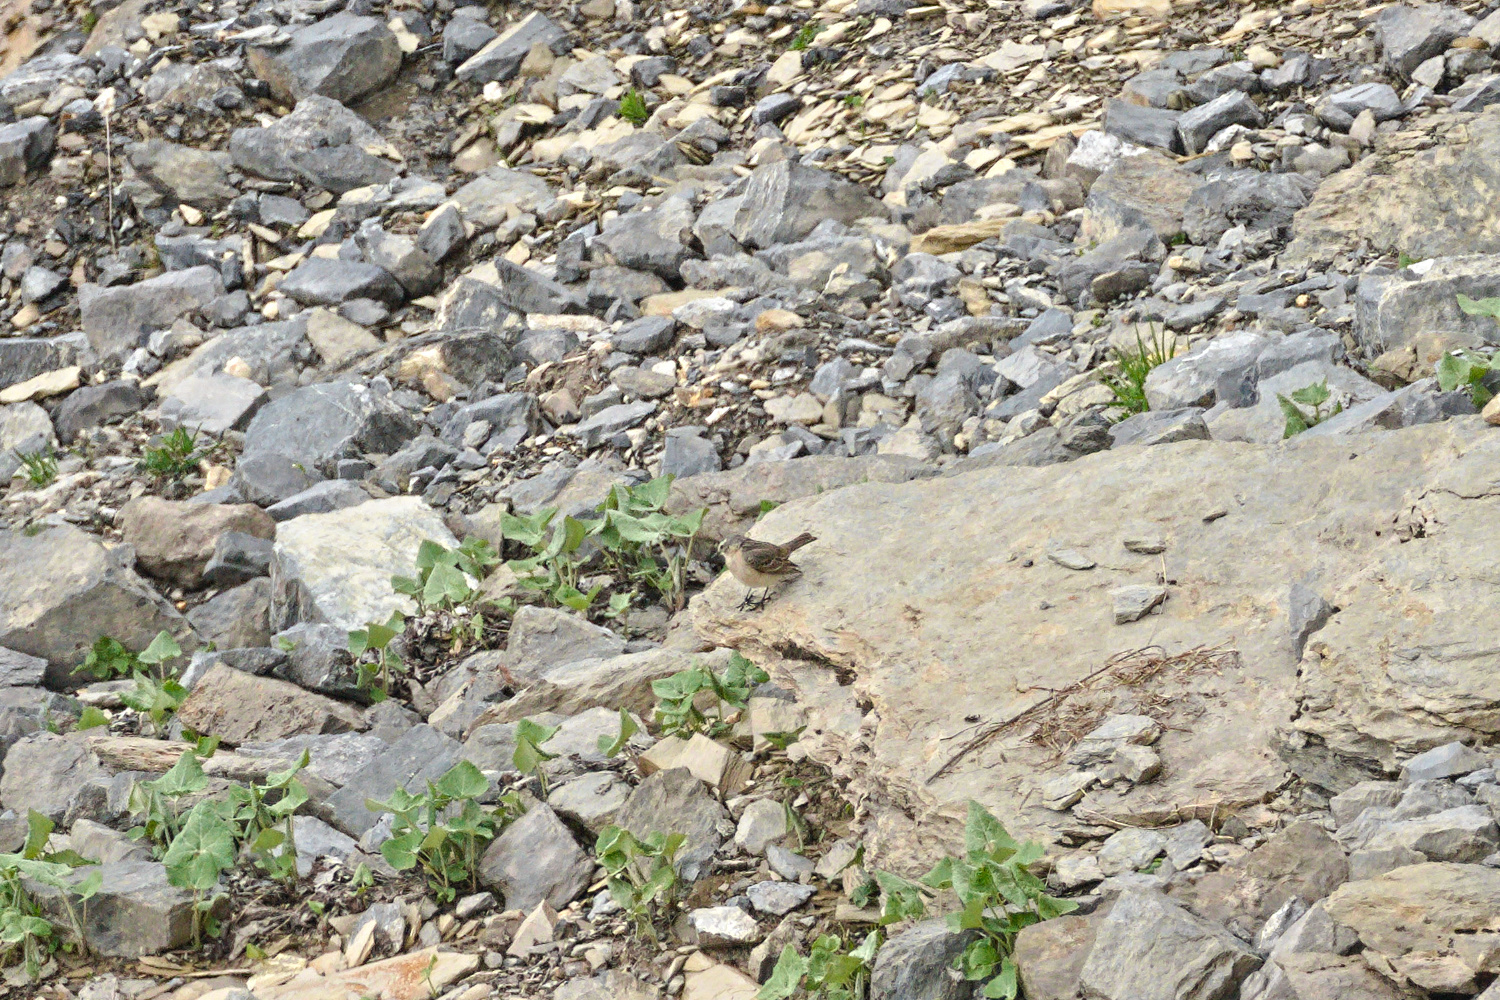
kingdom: Animalia
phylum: Chordata
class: Aves
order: Passeriformes
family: Motacillidae
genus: Anthus
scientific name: Anthus spinoletta
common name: Water pipit
